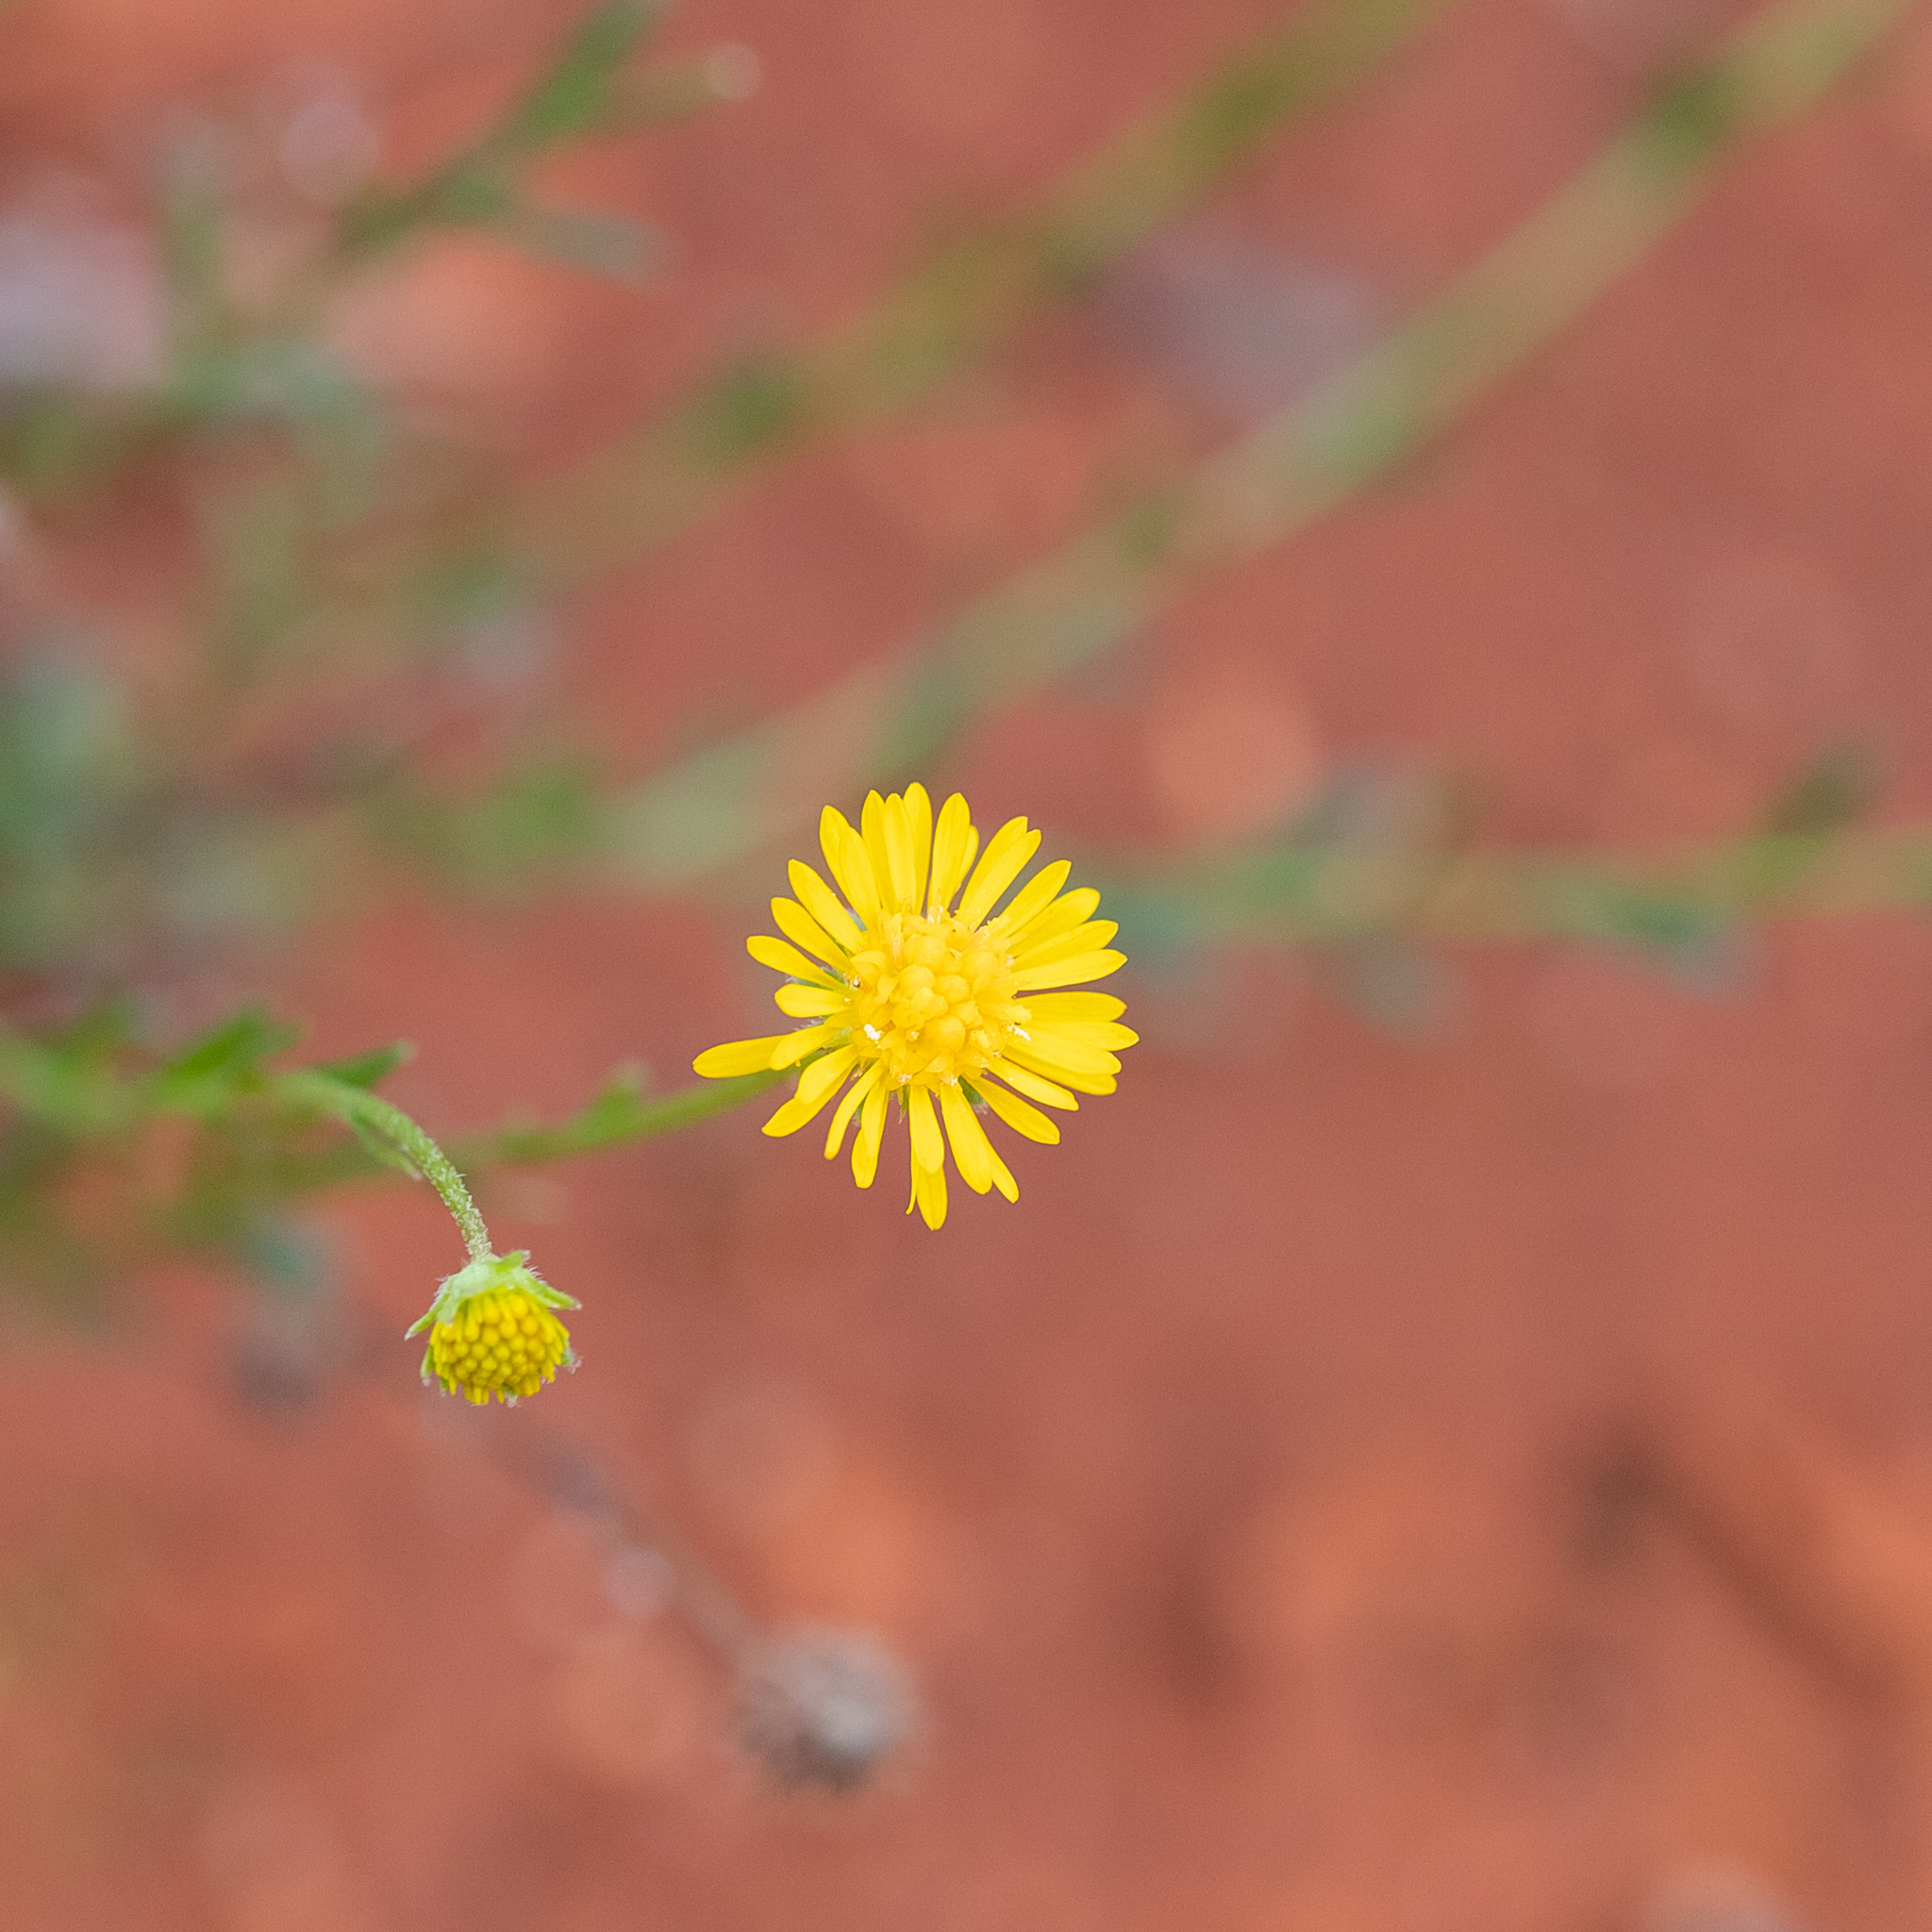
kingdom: Plantae
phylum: Tracheophyta
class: Magnoliopsida
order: Asterales
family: Asteraceae
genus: Calotis
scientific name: Calotis lappulacea
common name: Bur daisy
